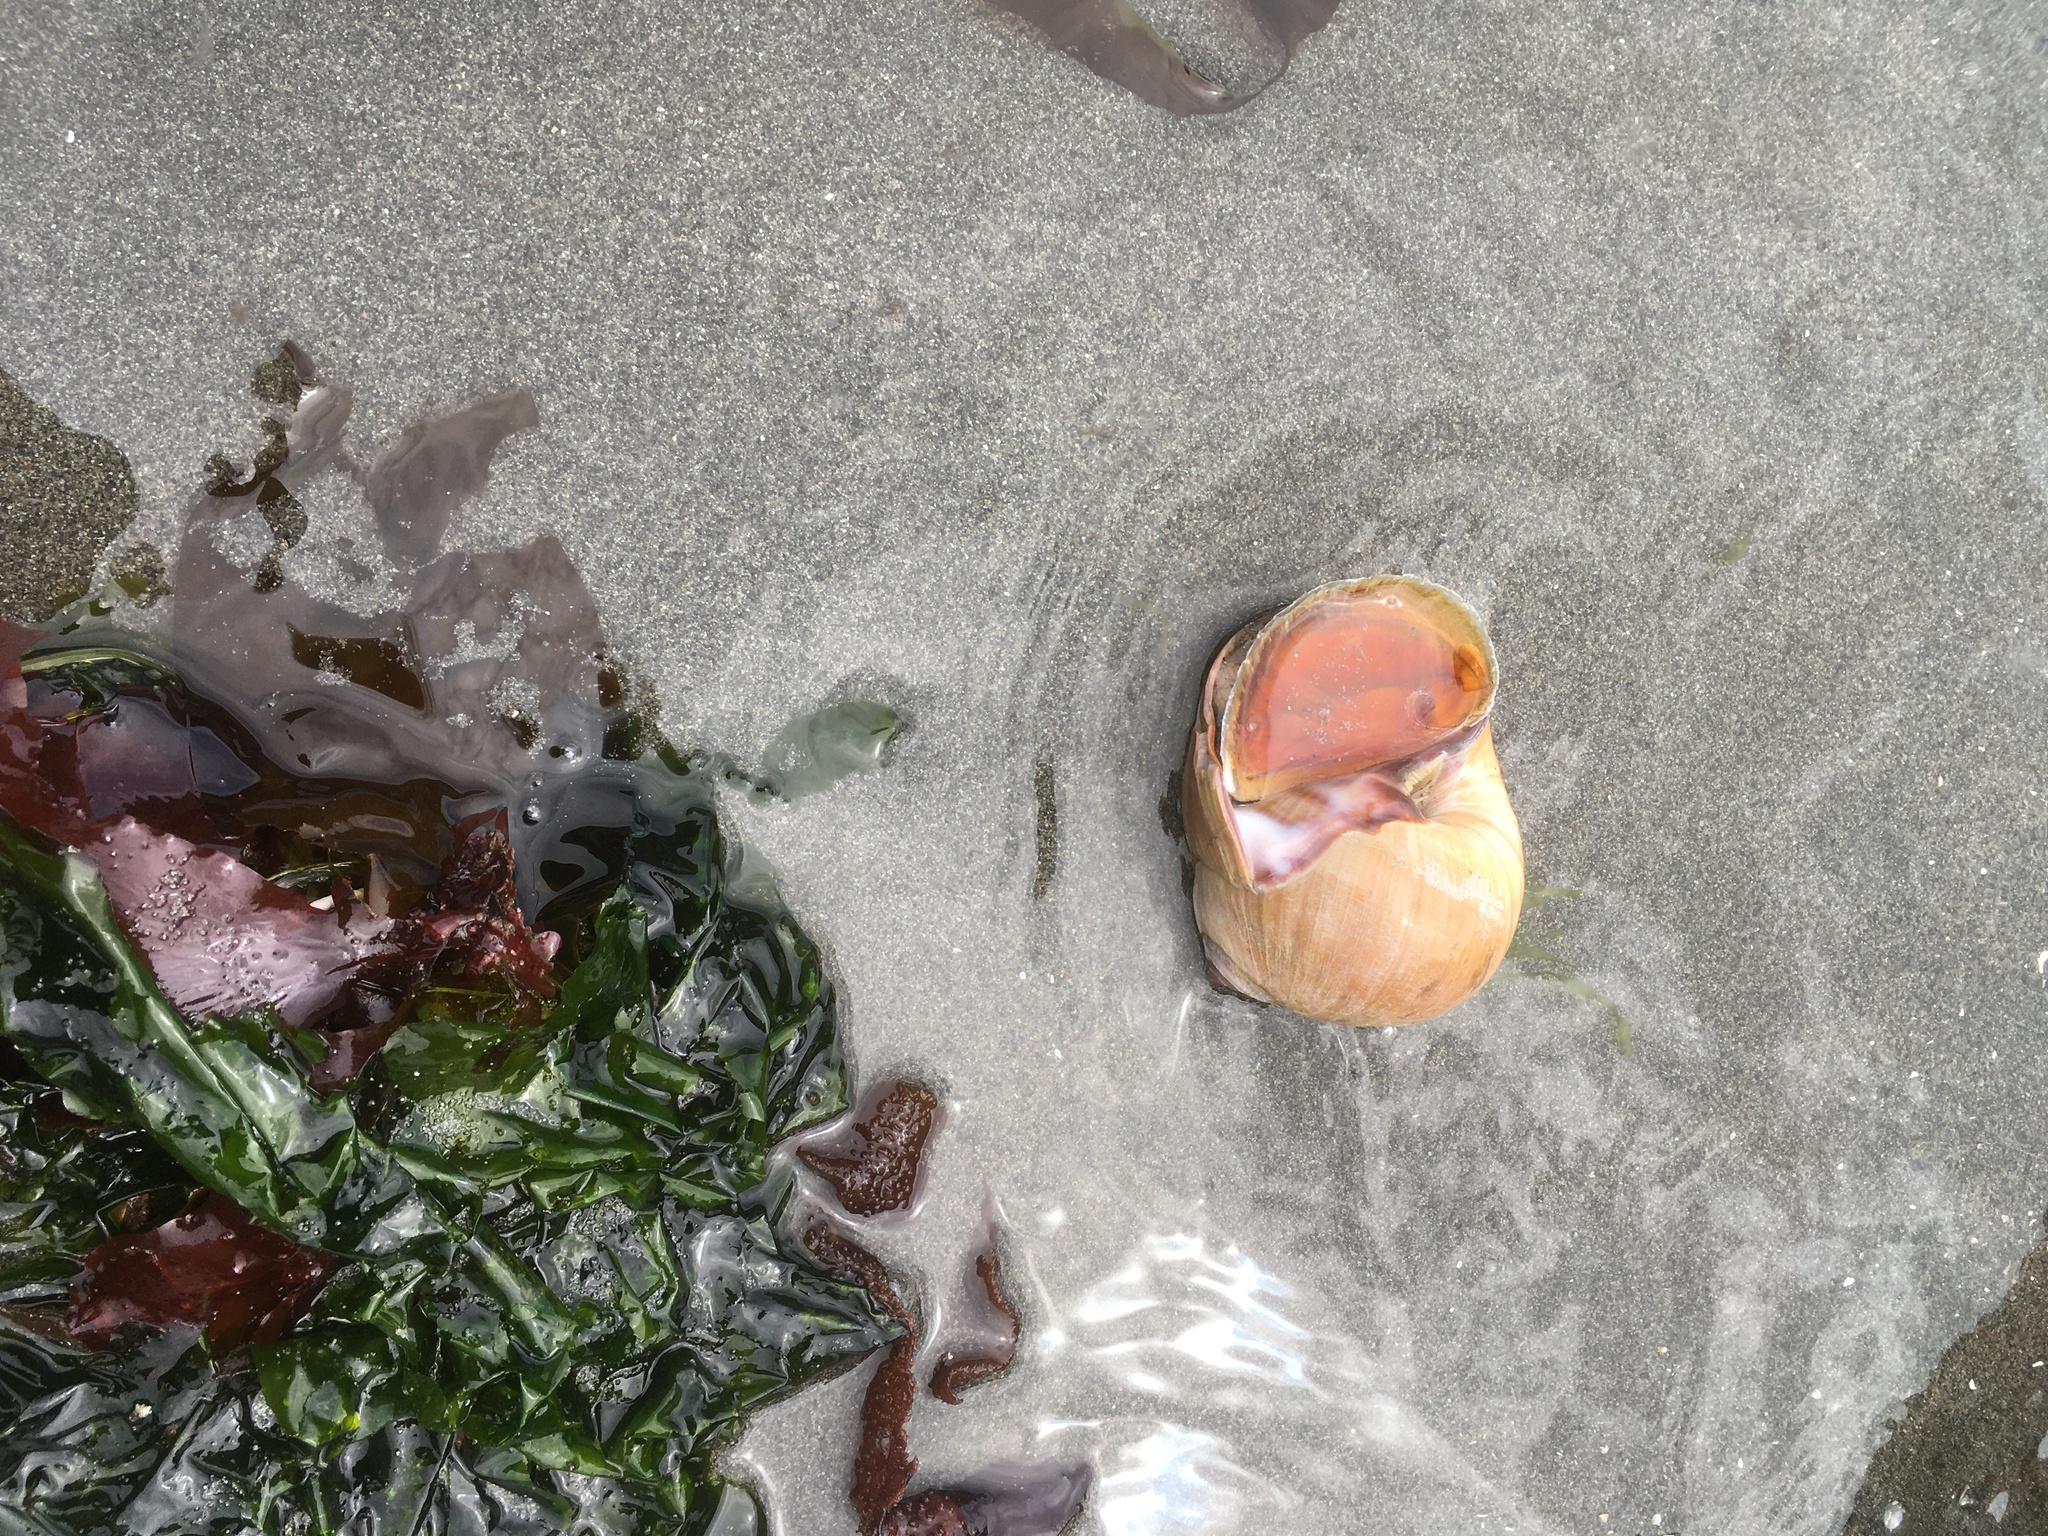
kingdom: Animalia
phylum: Mollusca
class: Gastropoda
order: Littorinimorpha
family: Naticidae
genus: Neverita
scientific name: Neverita lewisii
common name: Lewis' moonsnail
